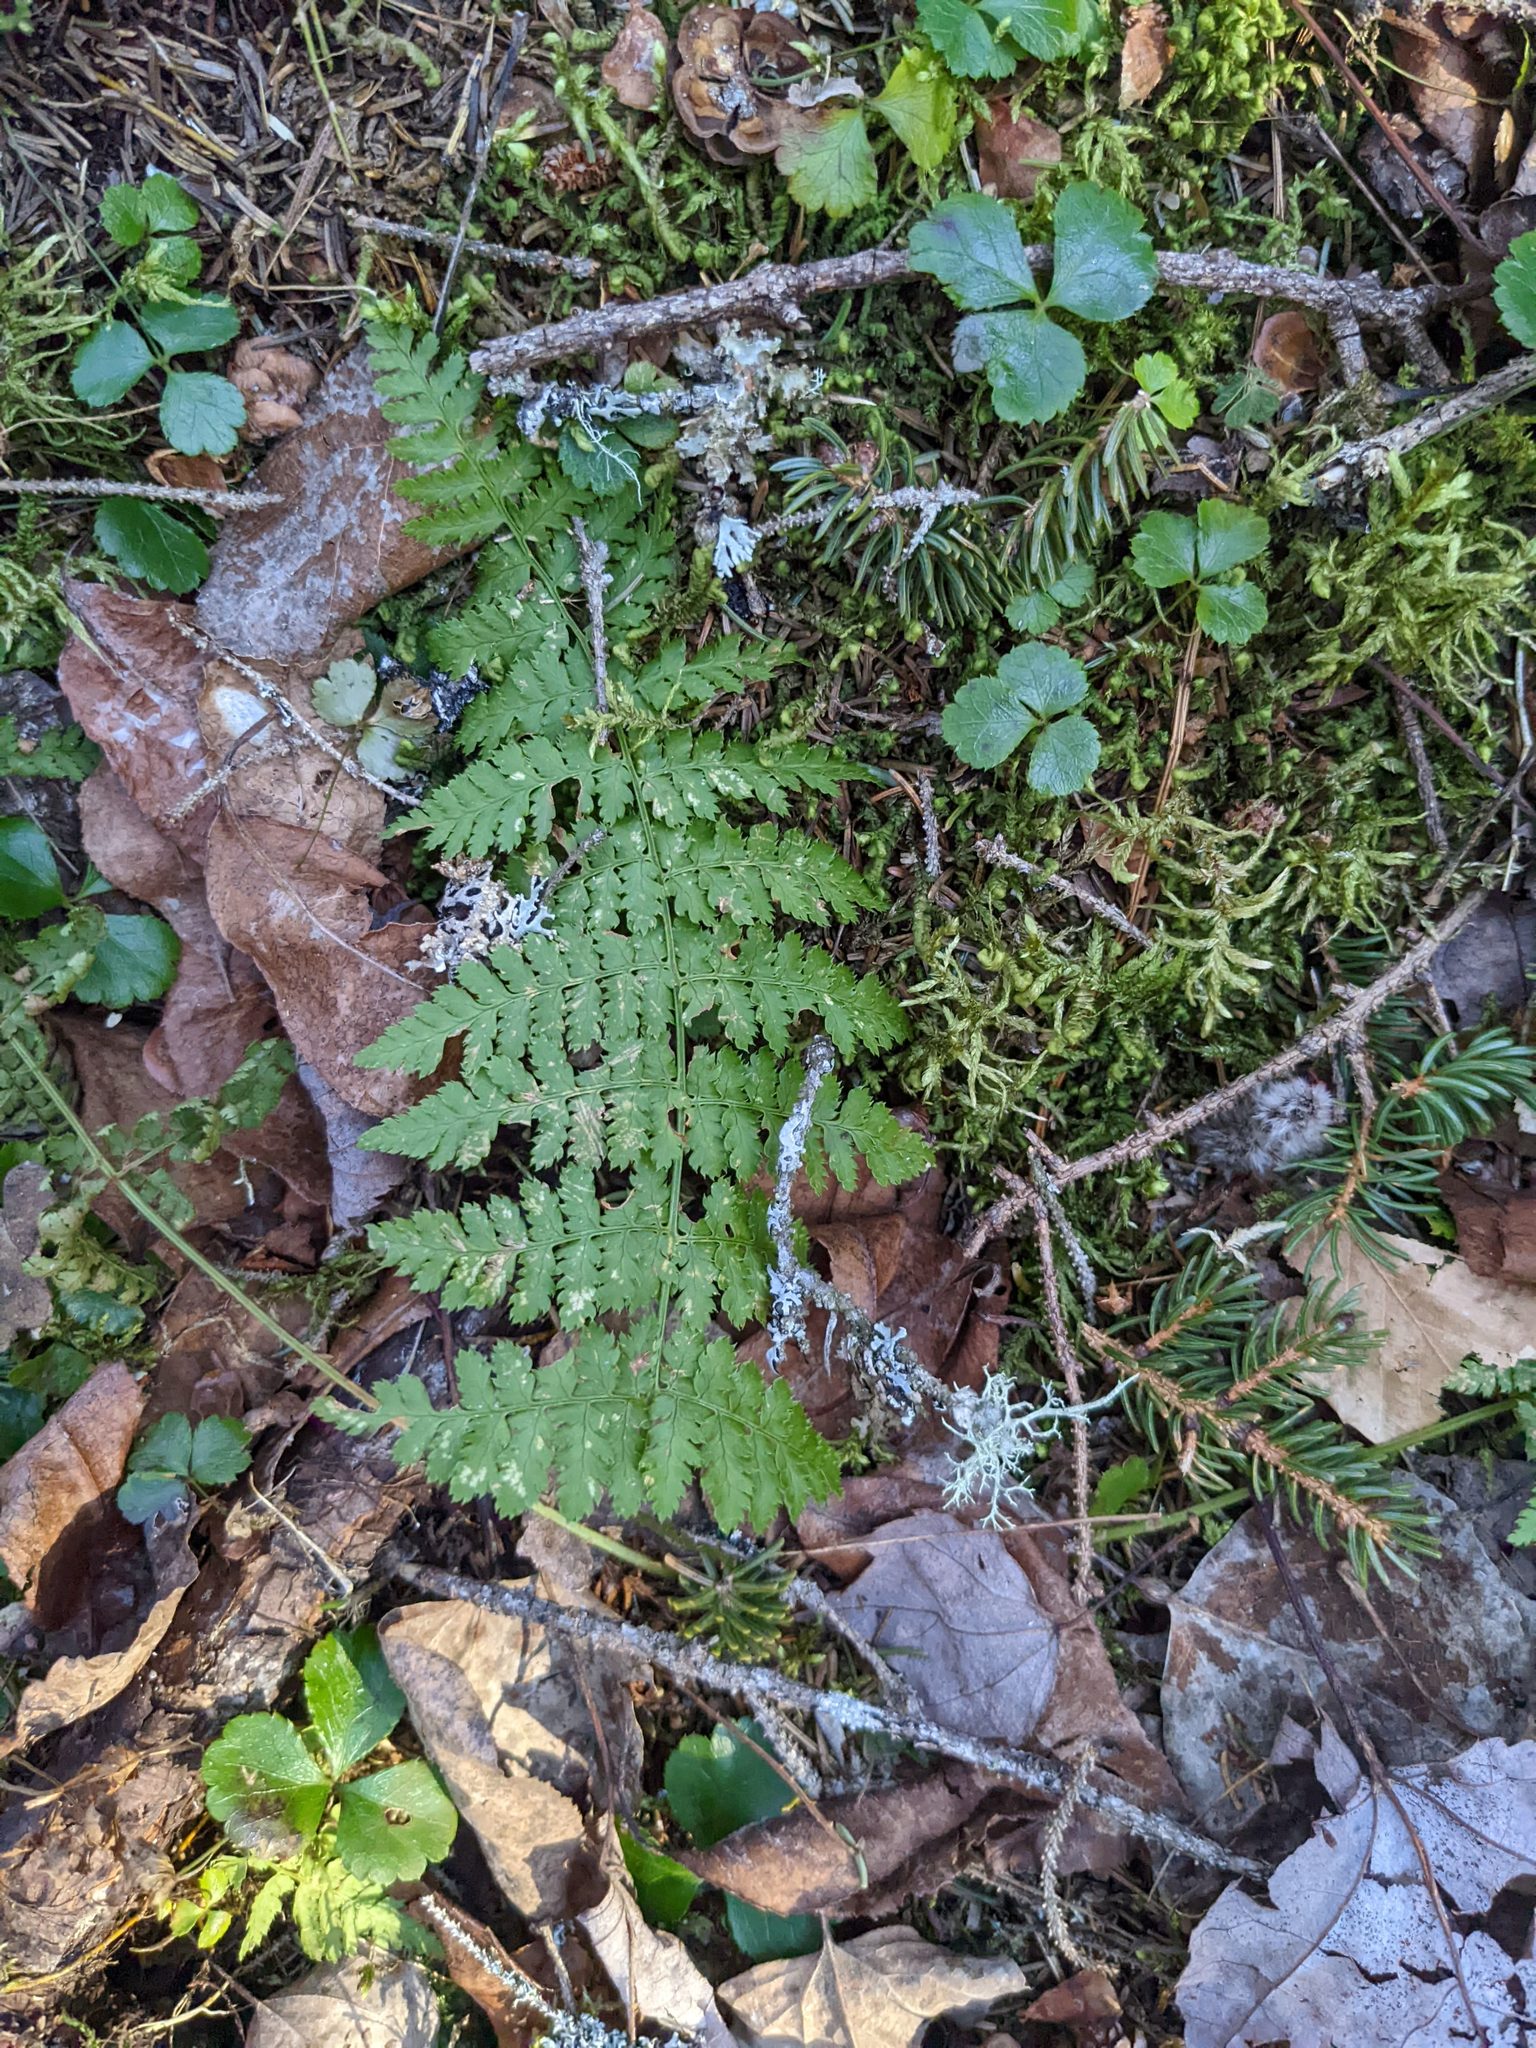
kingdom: Plantae
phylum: Tracheophyta
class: Magnoliopsida
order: Ranunculales
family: Ranunculaceae
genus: Coptis
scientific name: Coptis trifolia
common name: Canker-root
